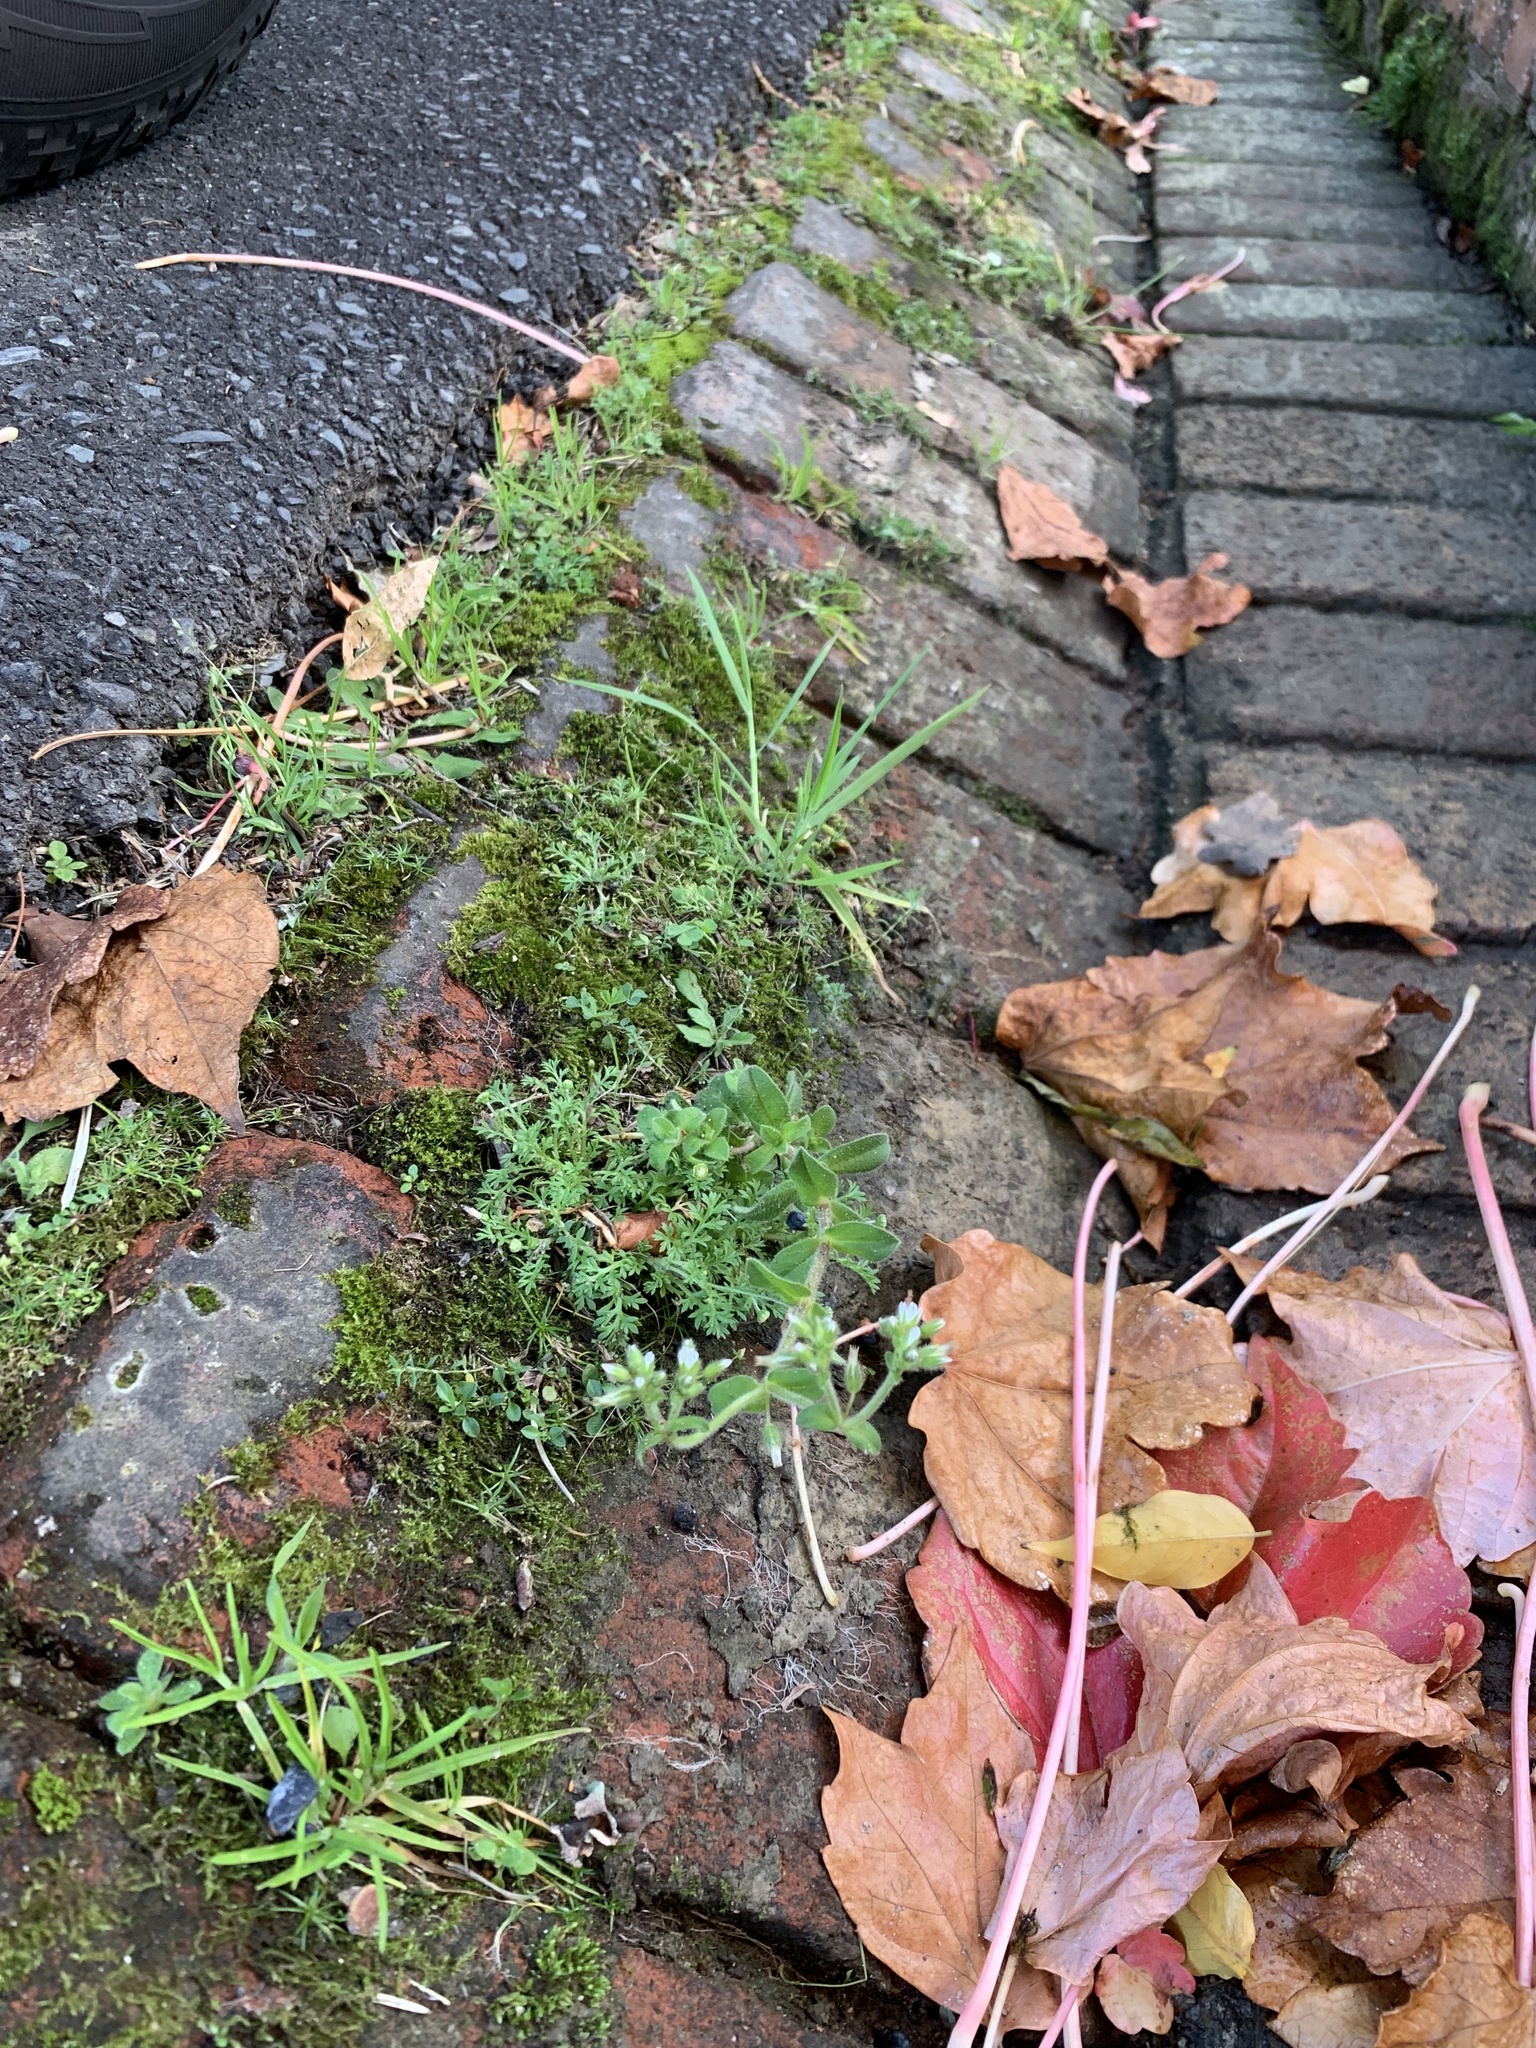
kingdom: Plantae
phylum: Tracheophyta
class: Magnoliopsida
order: Caryophyllales
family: Caryophyllaceae
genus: Cerastium
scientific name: Cerastium glomeratum
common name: Sticky chickweed
